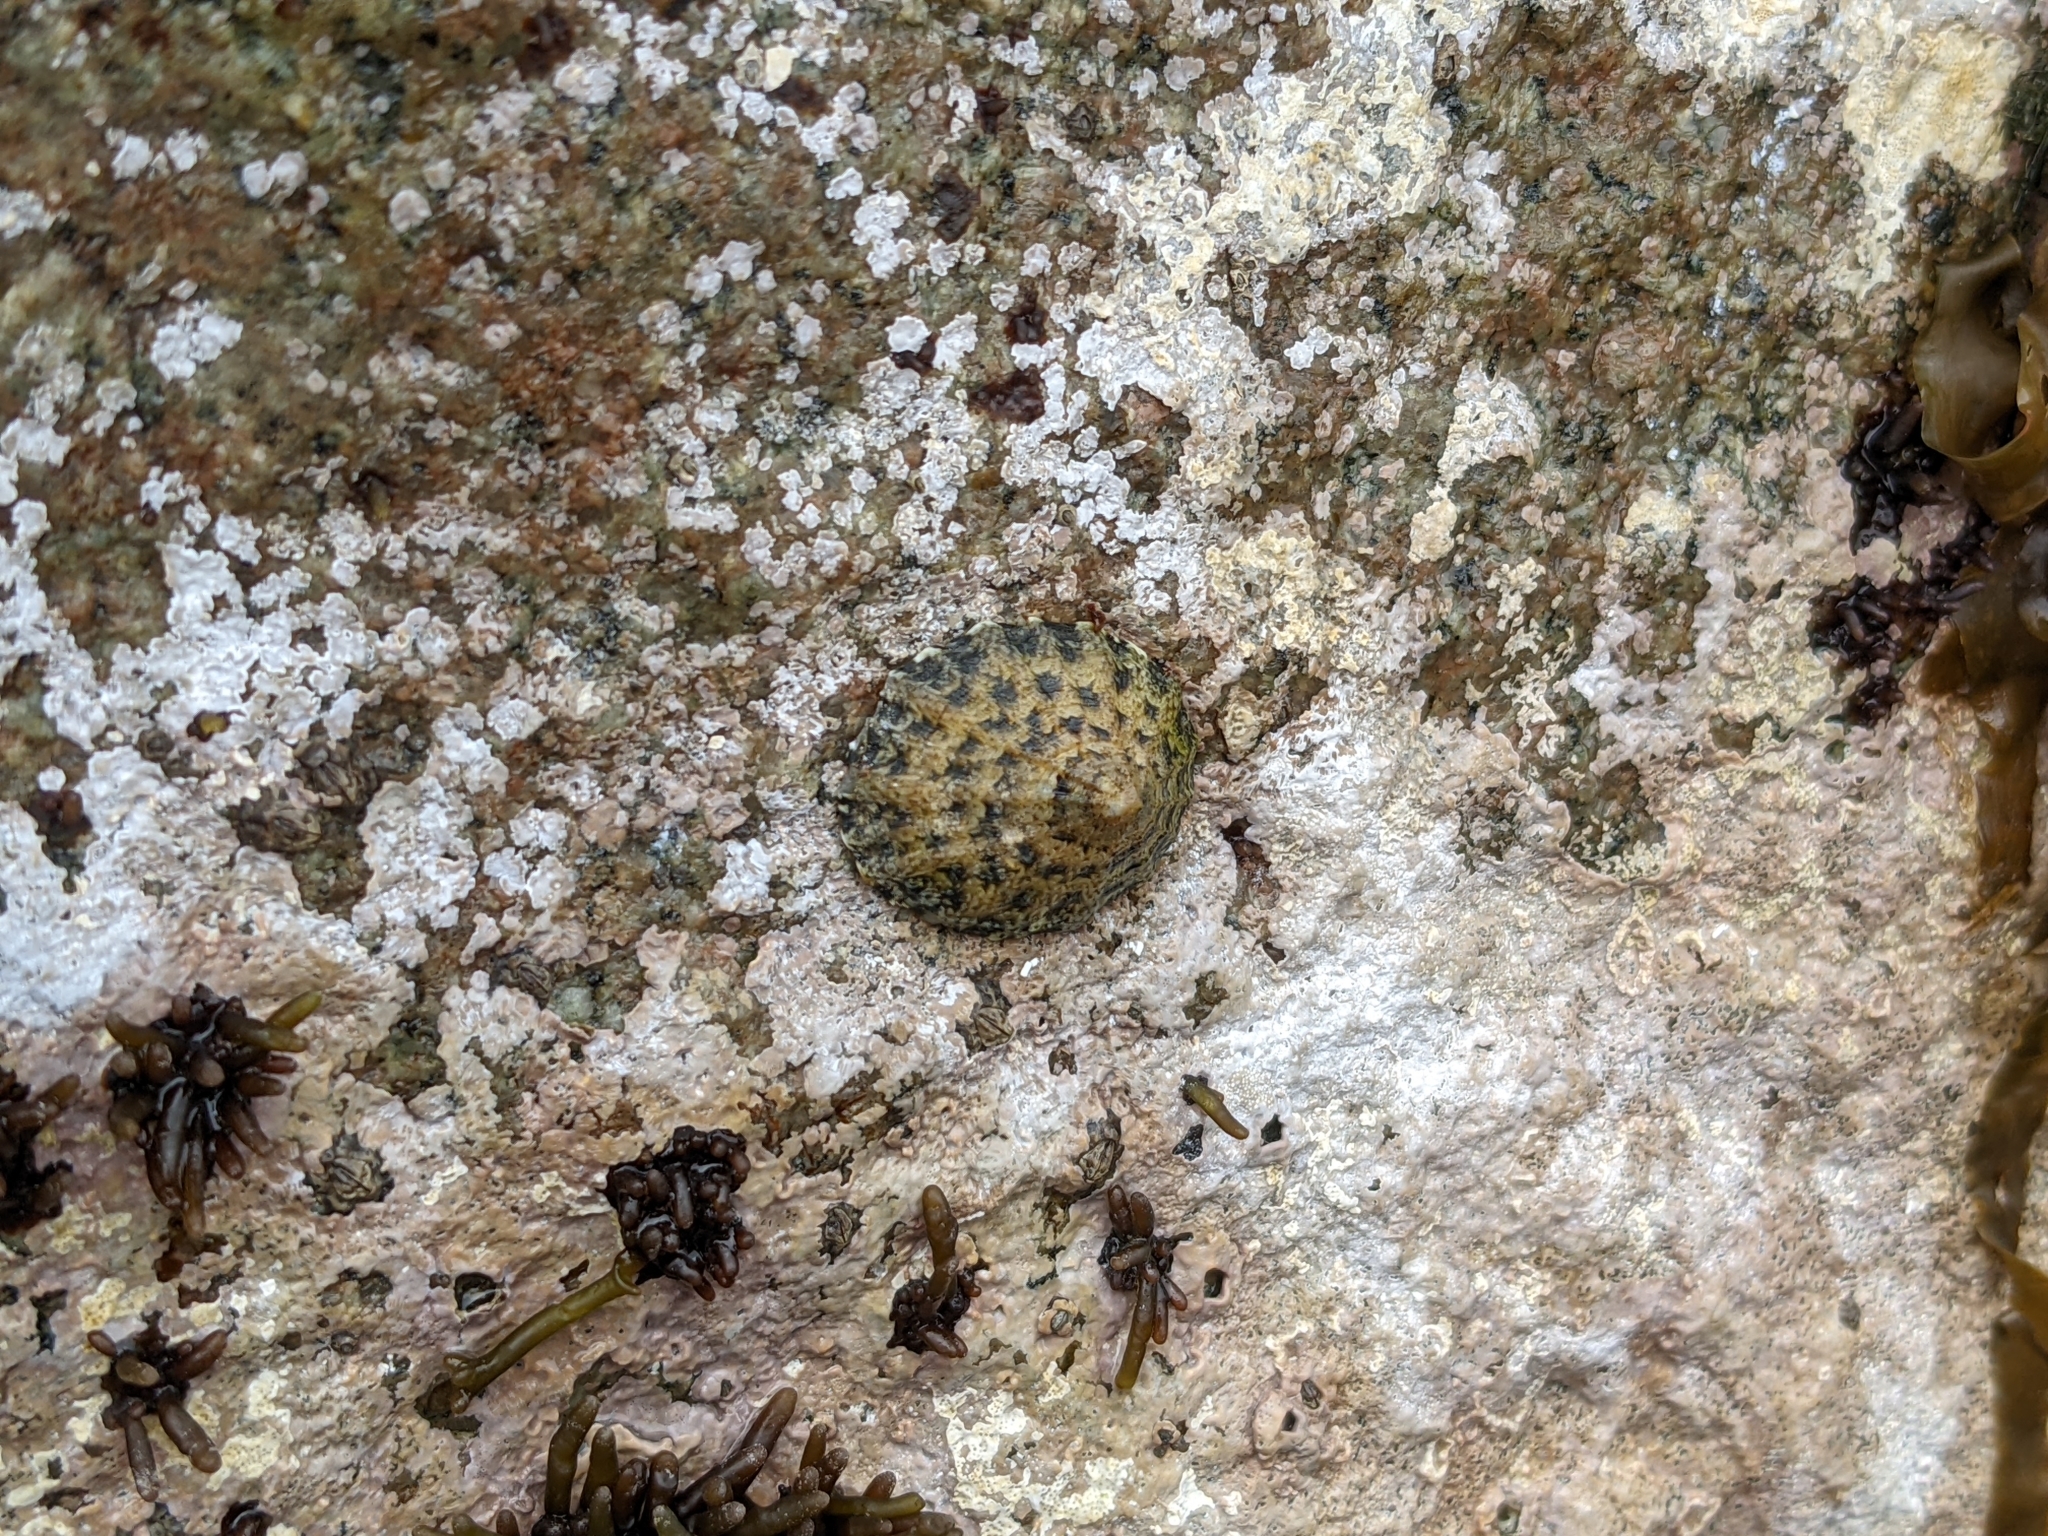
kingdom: Animalia
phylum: Mollusca
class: Gastropoda
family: Lottiidae
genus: Scurria
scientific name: Scurria zebrina
